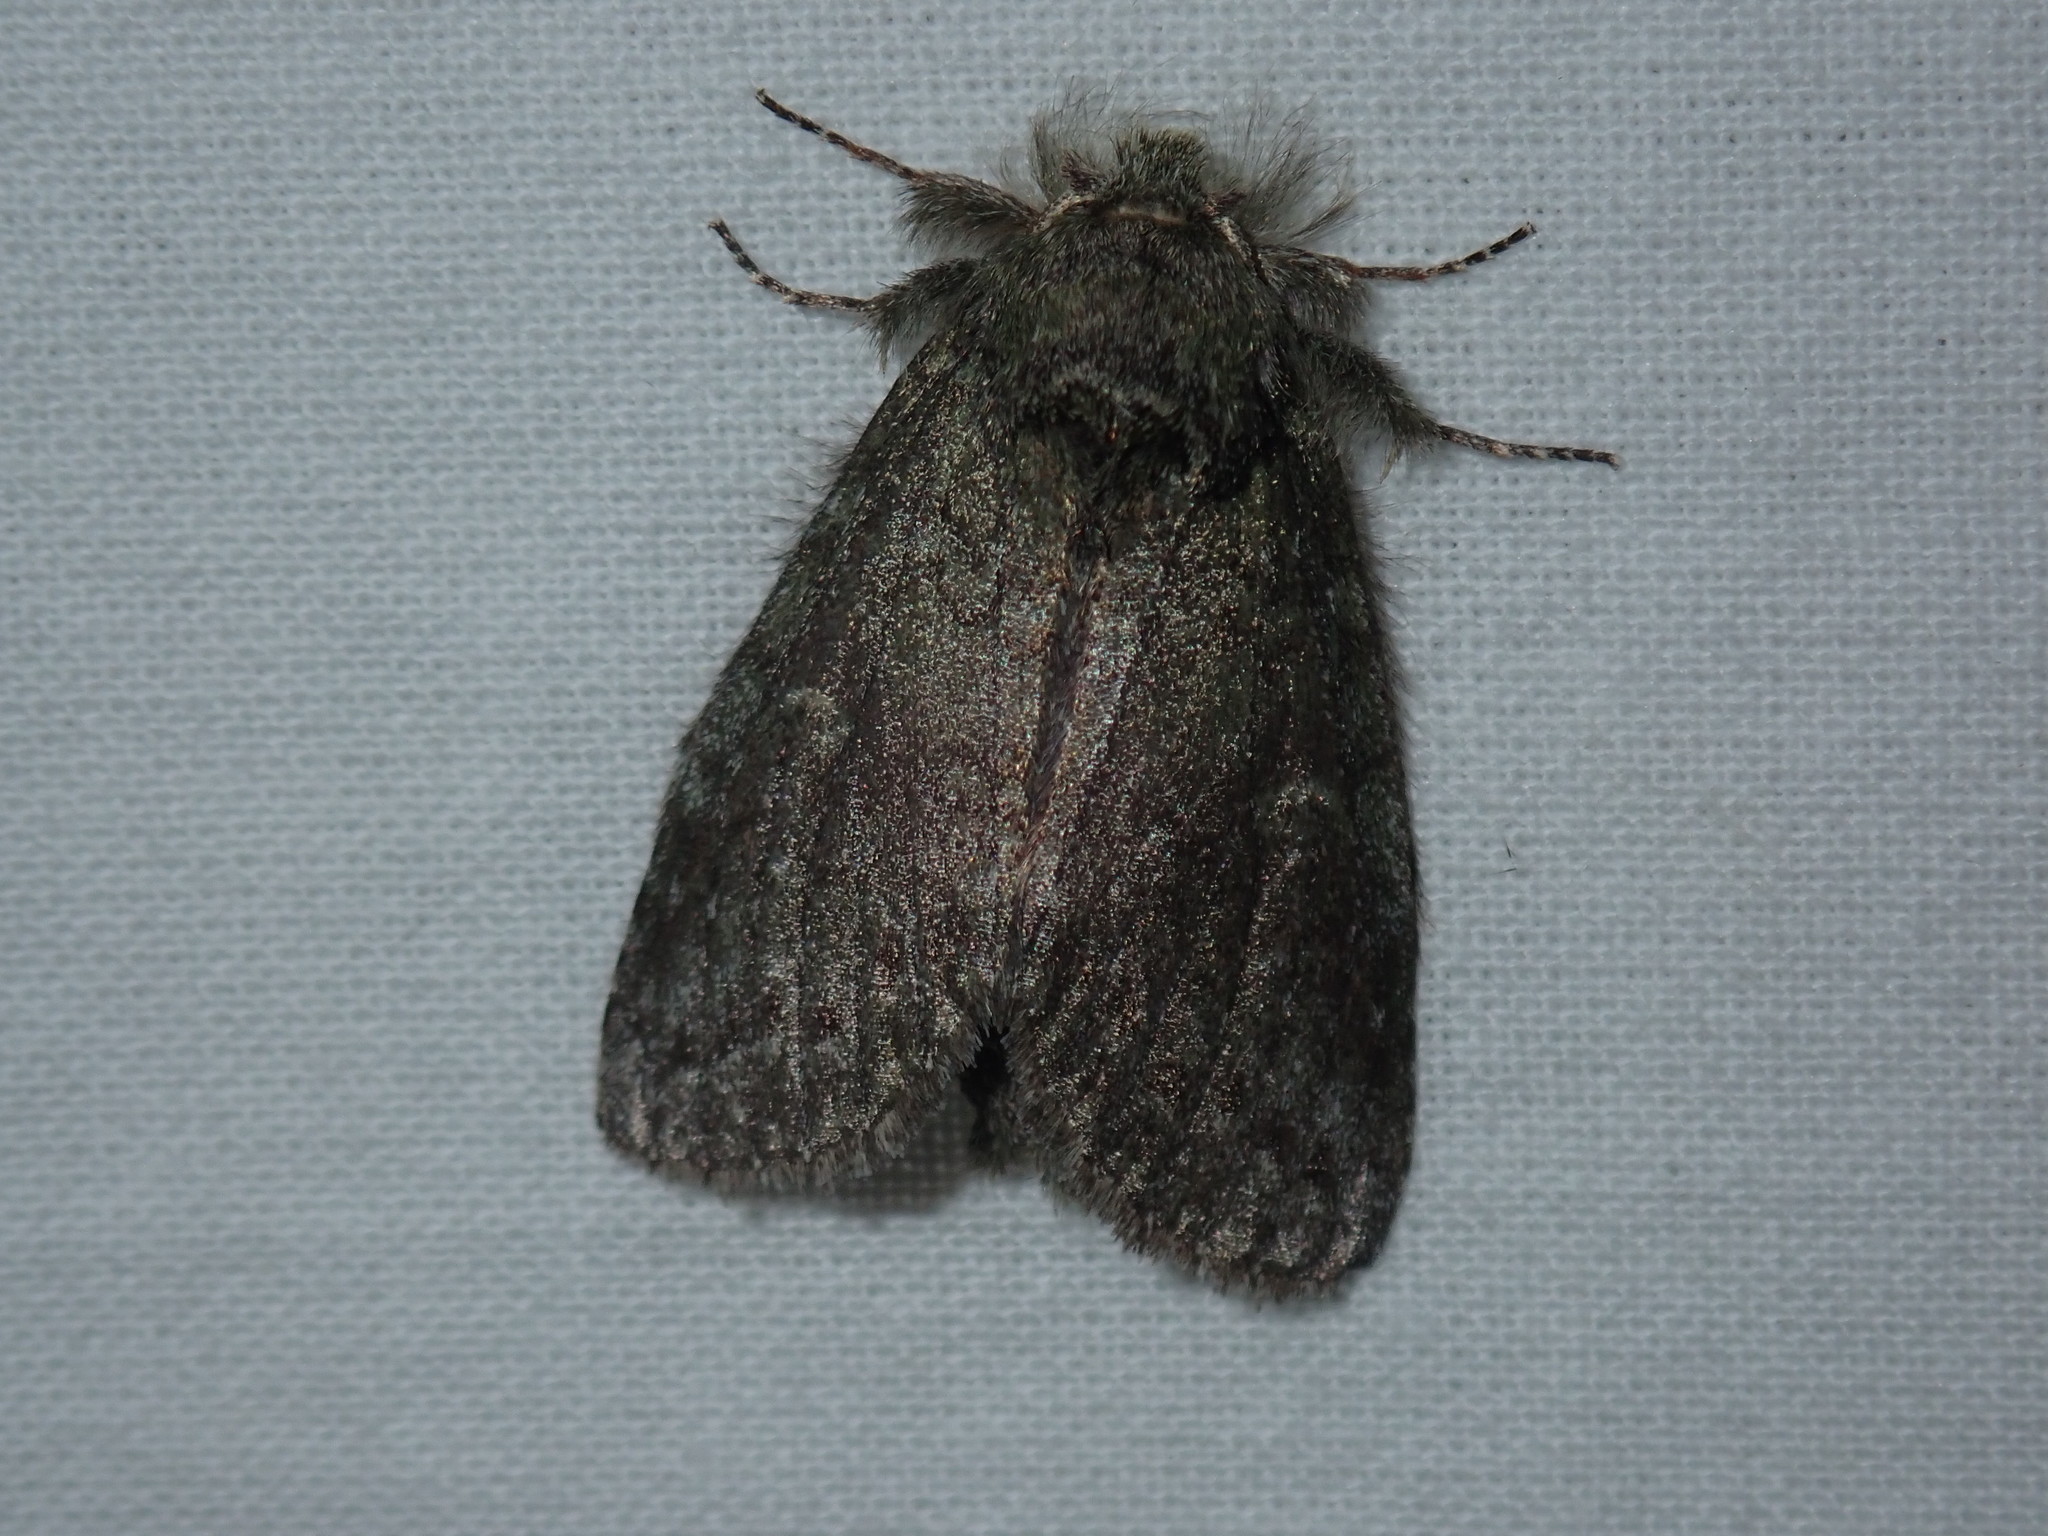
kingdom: Animalia
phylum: Arthropoda
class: Insecta
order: Lepidoptera
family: Notodontidae
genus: Disphragis
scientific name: Disphragis Cecrita guttivitta
